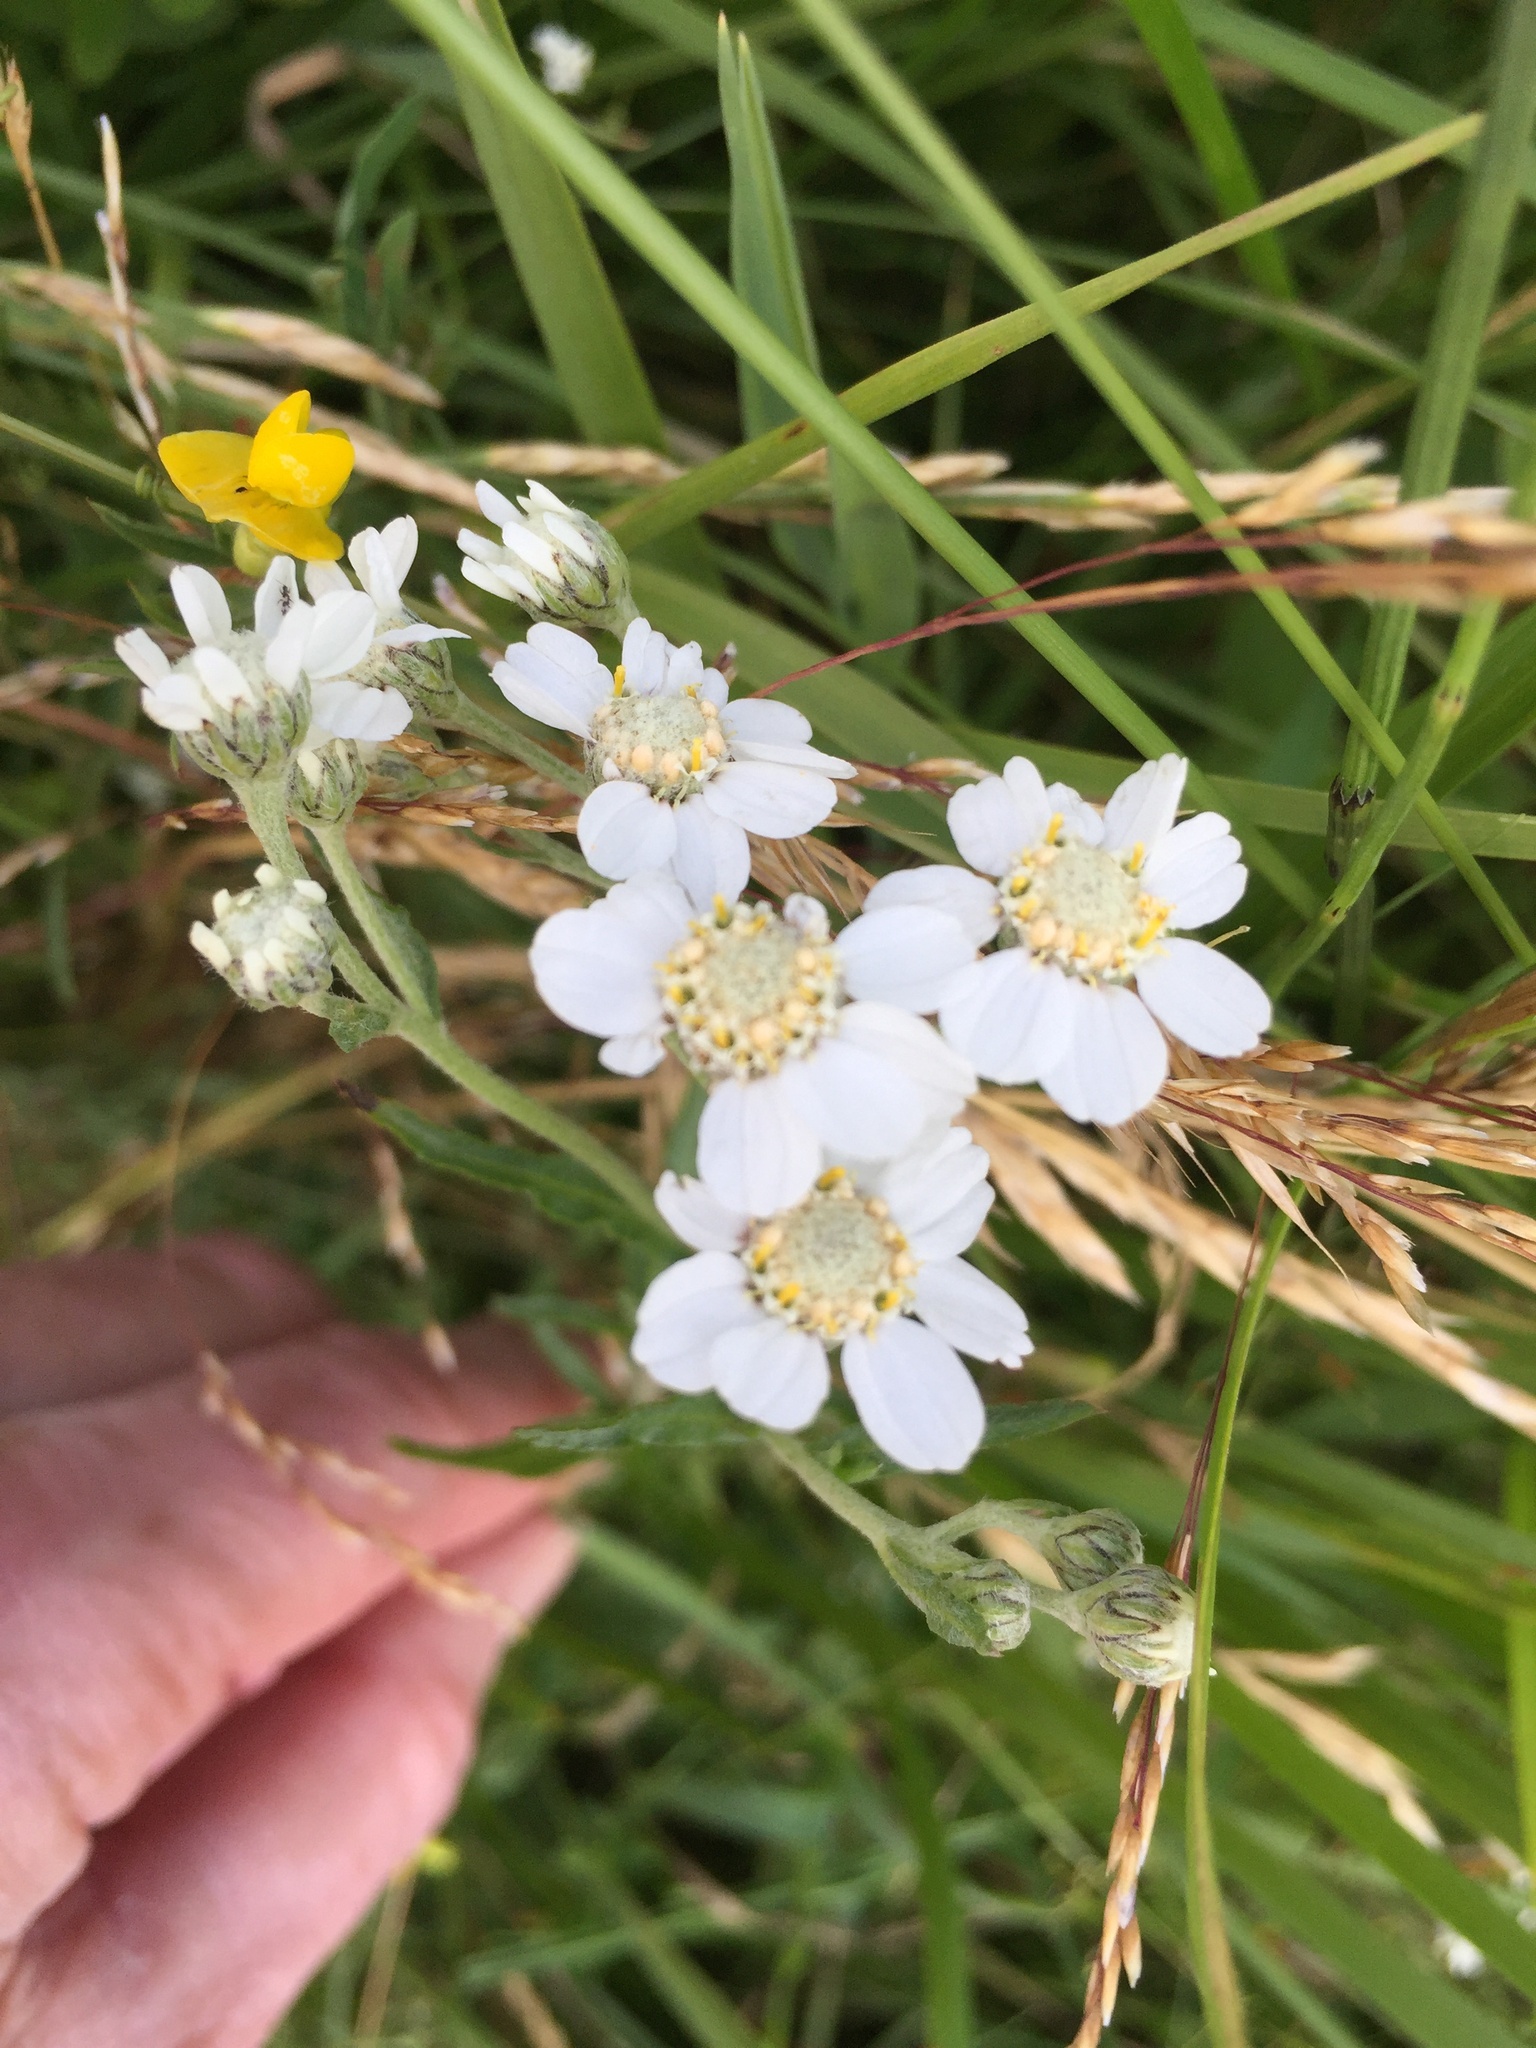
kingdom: Plantae
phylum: Tracheophyta
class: Magnoliopsida
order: Asterales
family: Asteraceae
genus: Achillea
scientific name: Achillea ptarmica
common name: Sneezeweed
